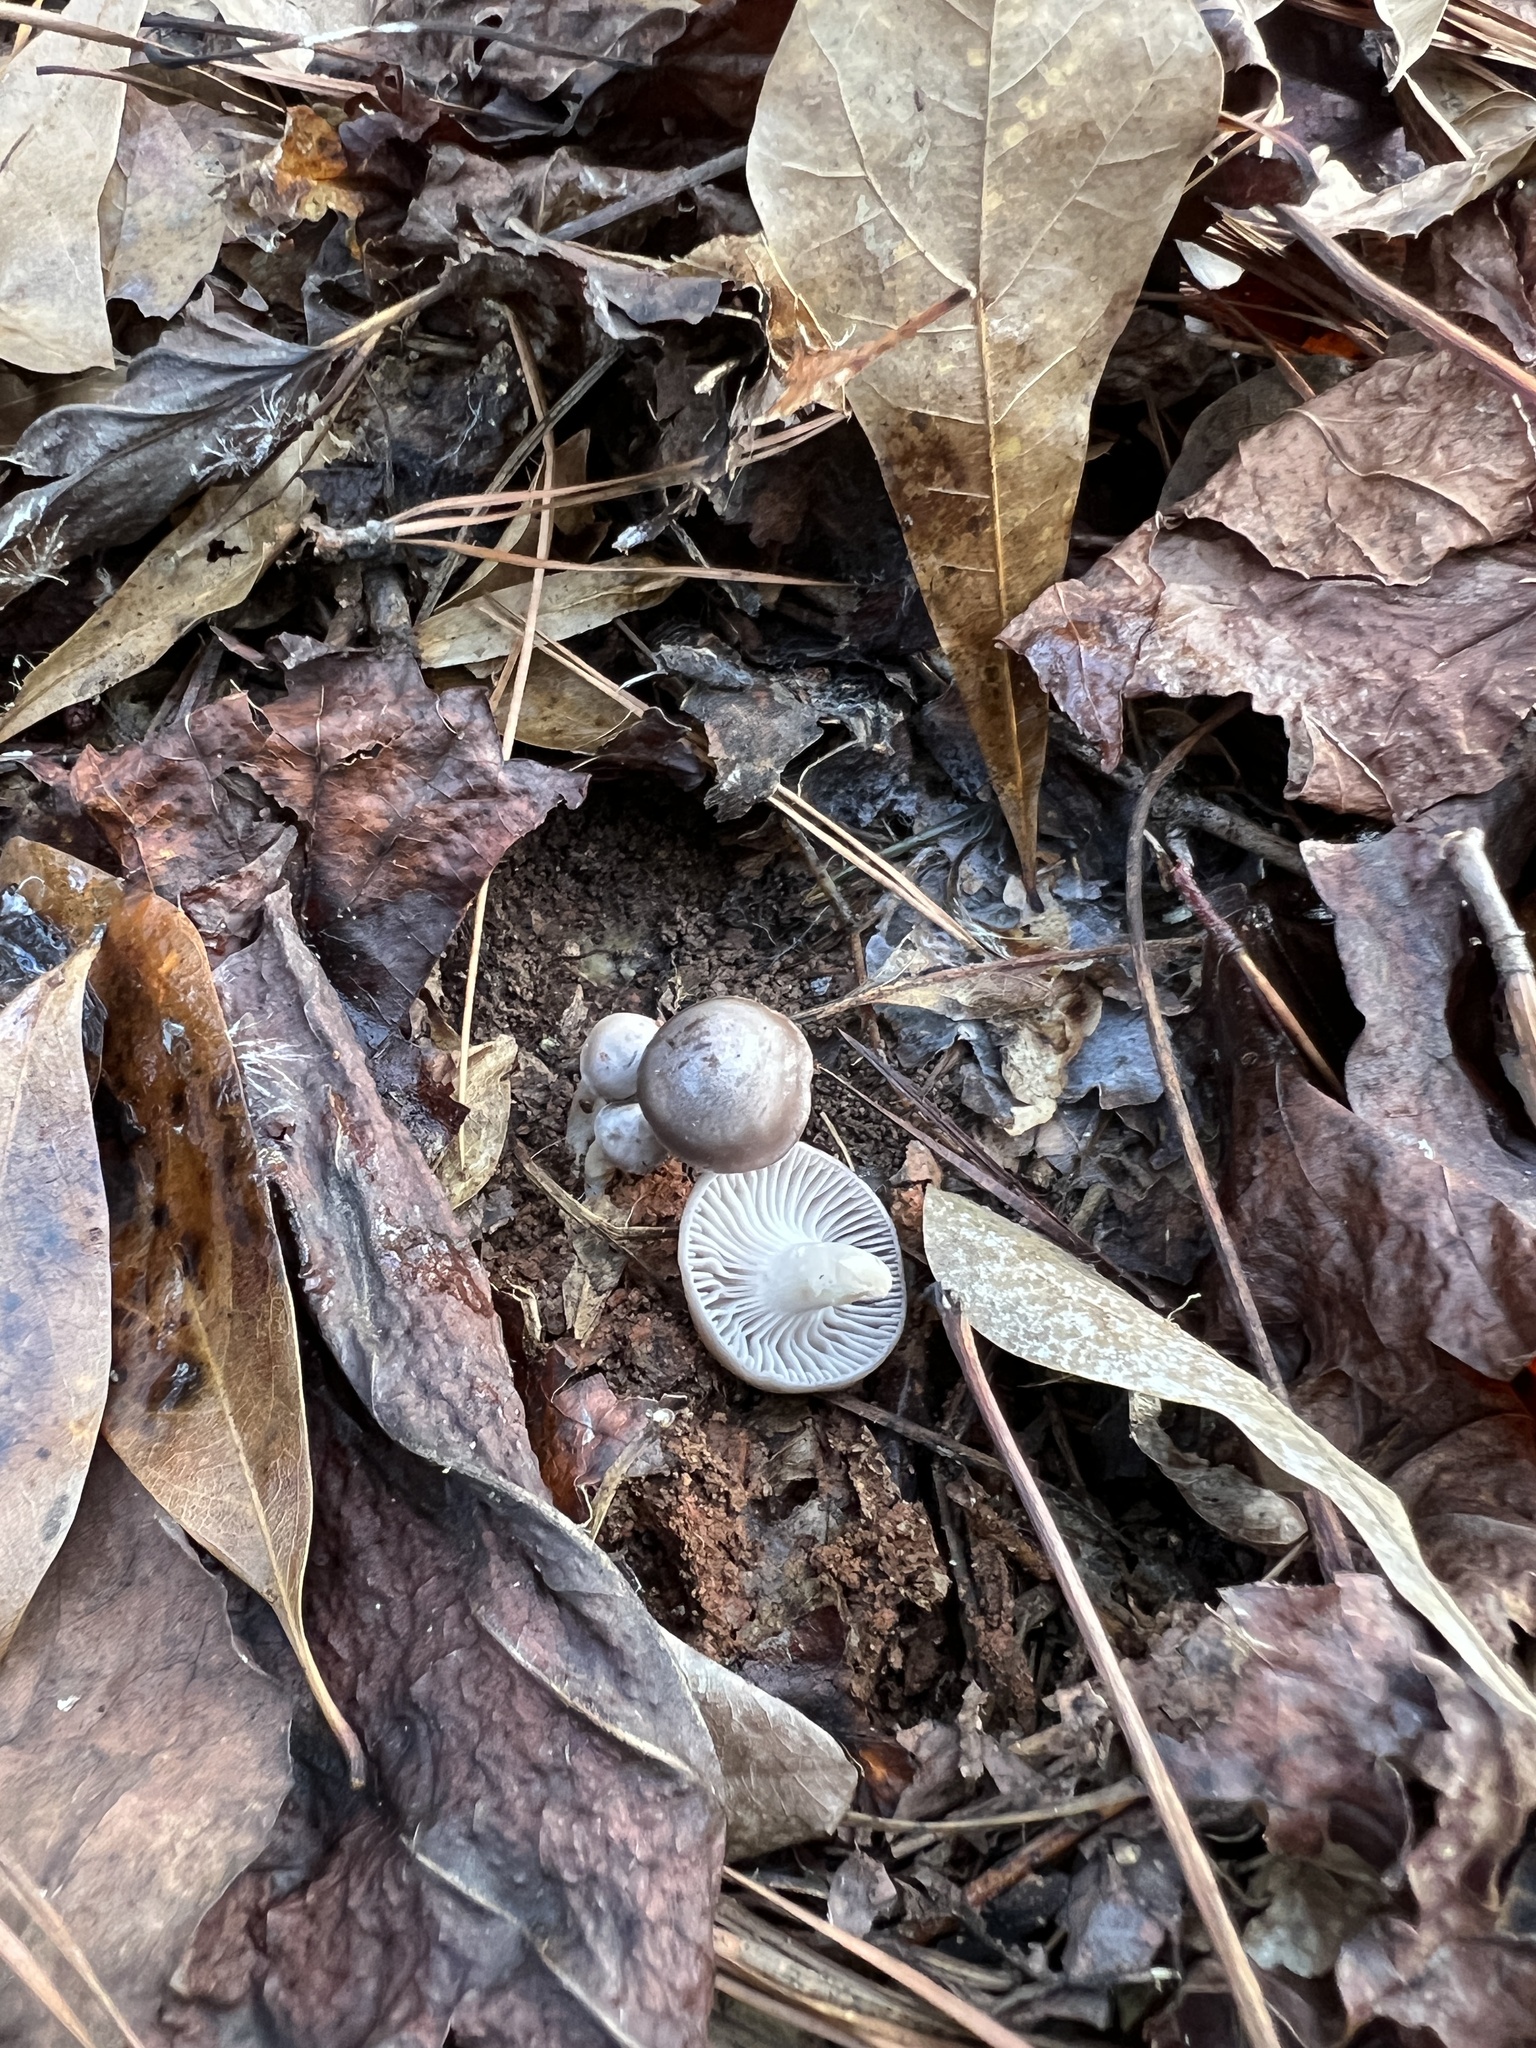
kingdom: Fungi
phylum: Basidiomycota
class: Agaricomycetes
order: Agaricales
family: Hygrophoraceae
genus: Cuphophyllus
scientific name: Cuphophyllus lacmus
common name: Grey waxcap
